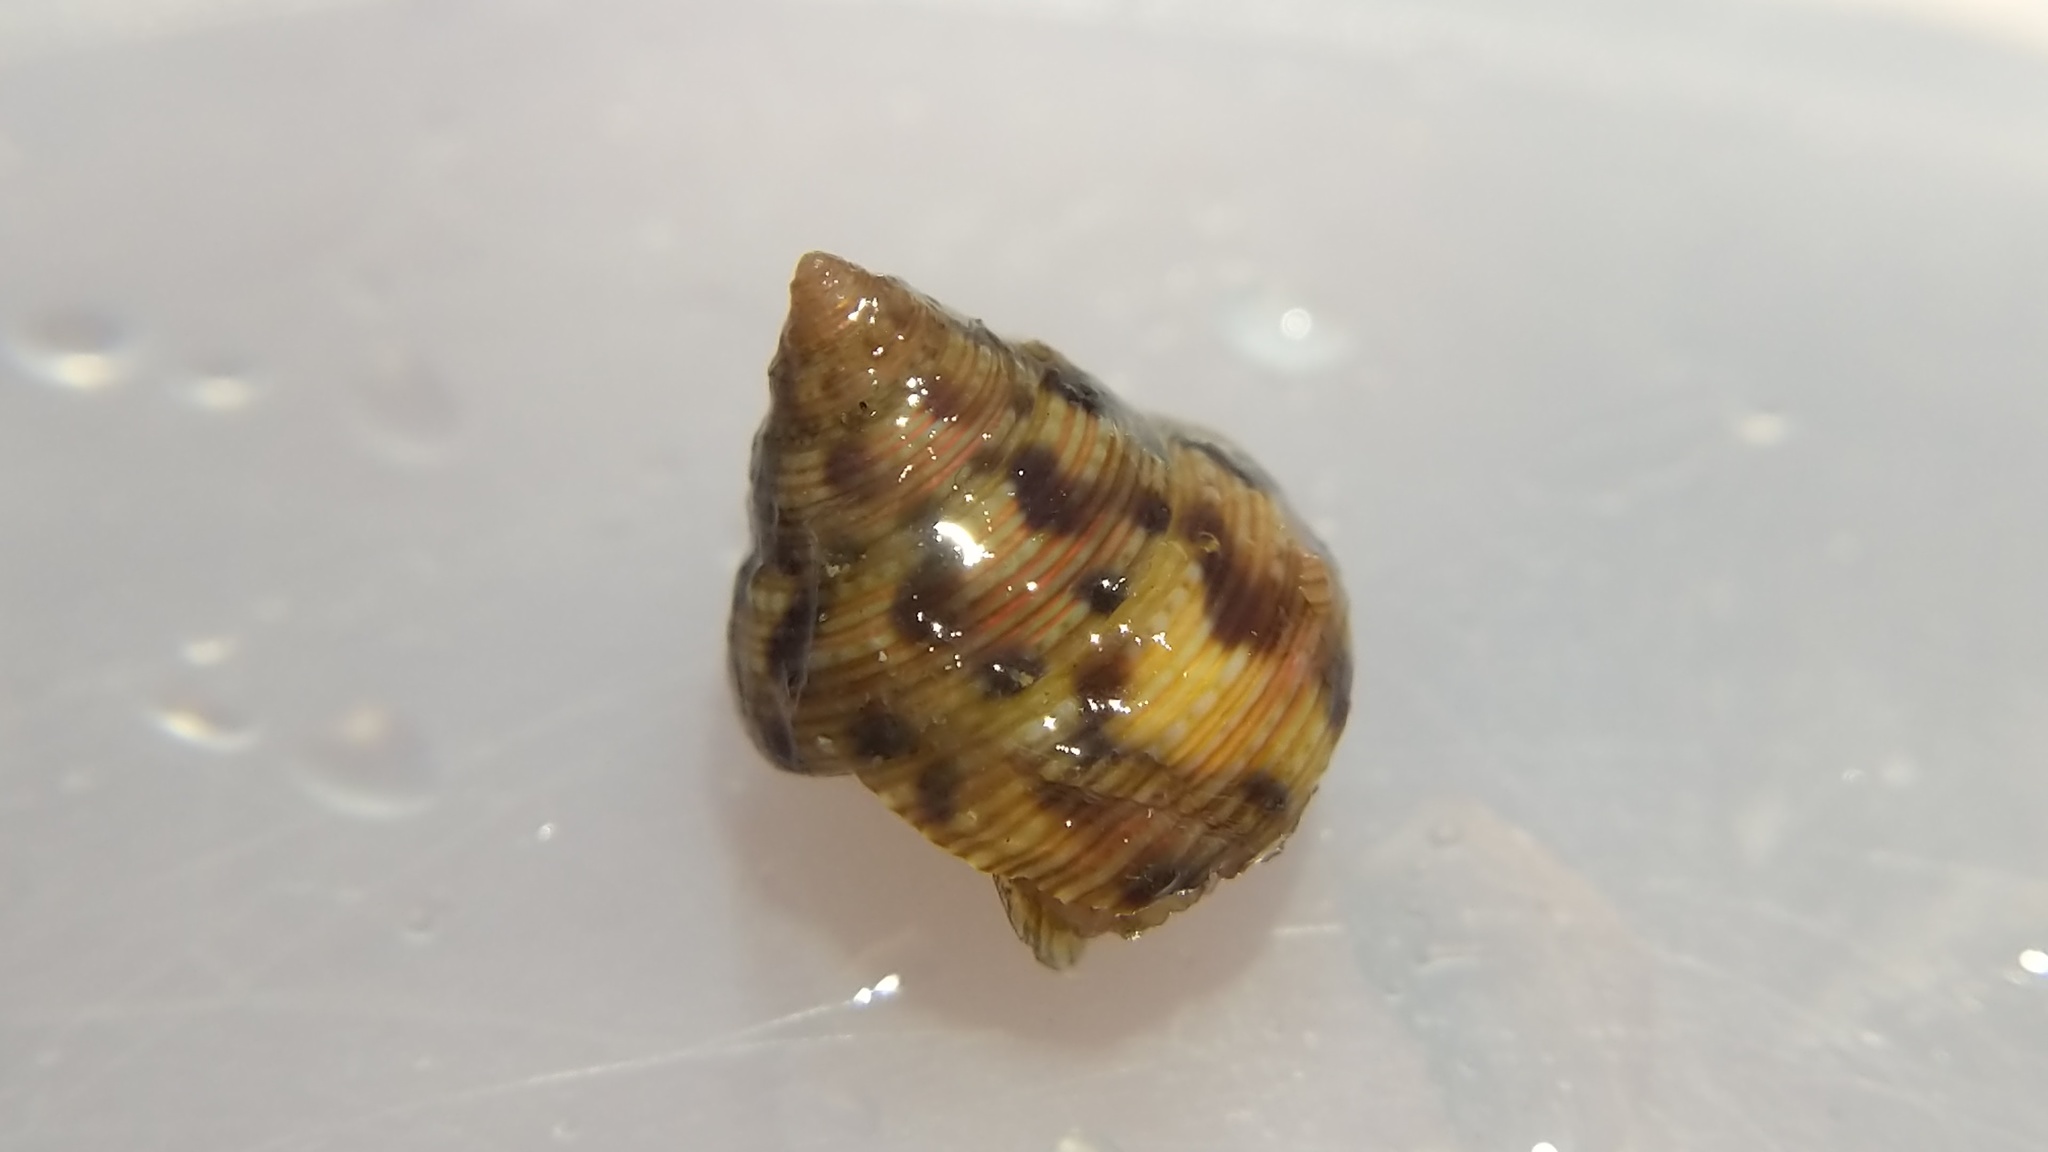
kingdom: Animalia
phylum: Mollusca
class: Gastropoda
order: Trochida
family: Calliostomatidae
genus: Calliostoma
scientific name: Calliostoma gloriosum
